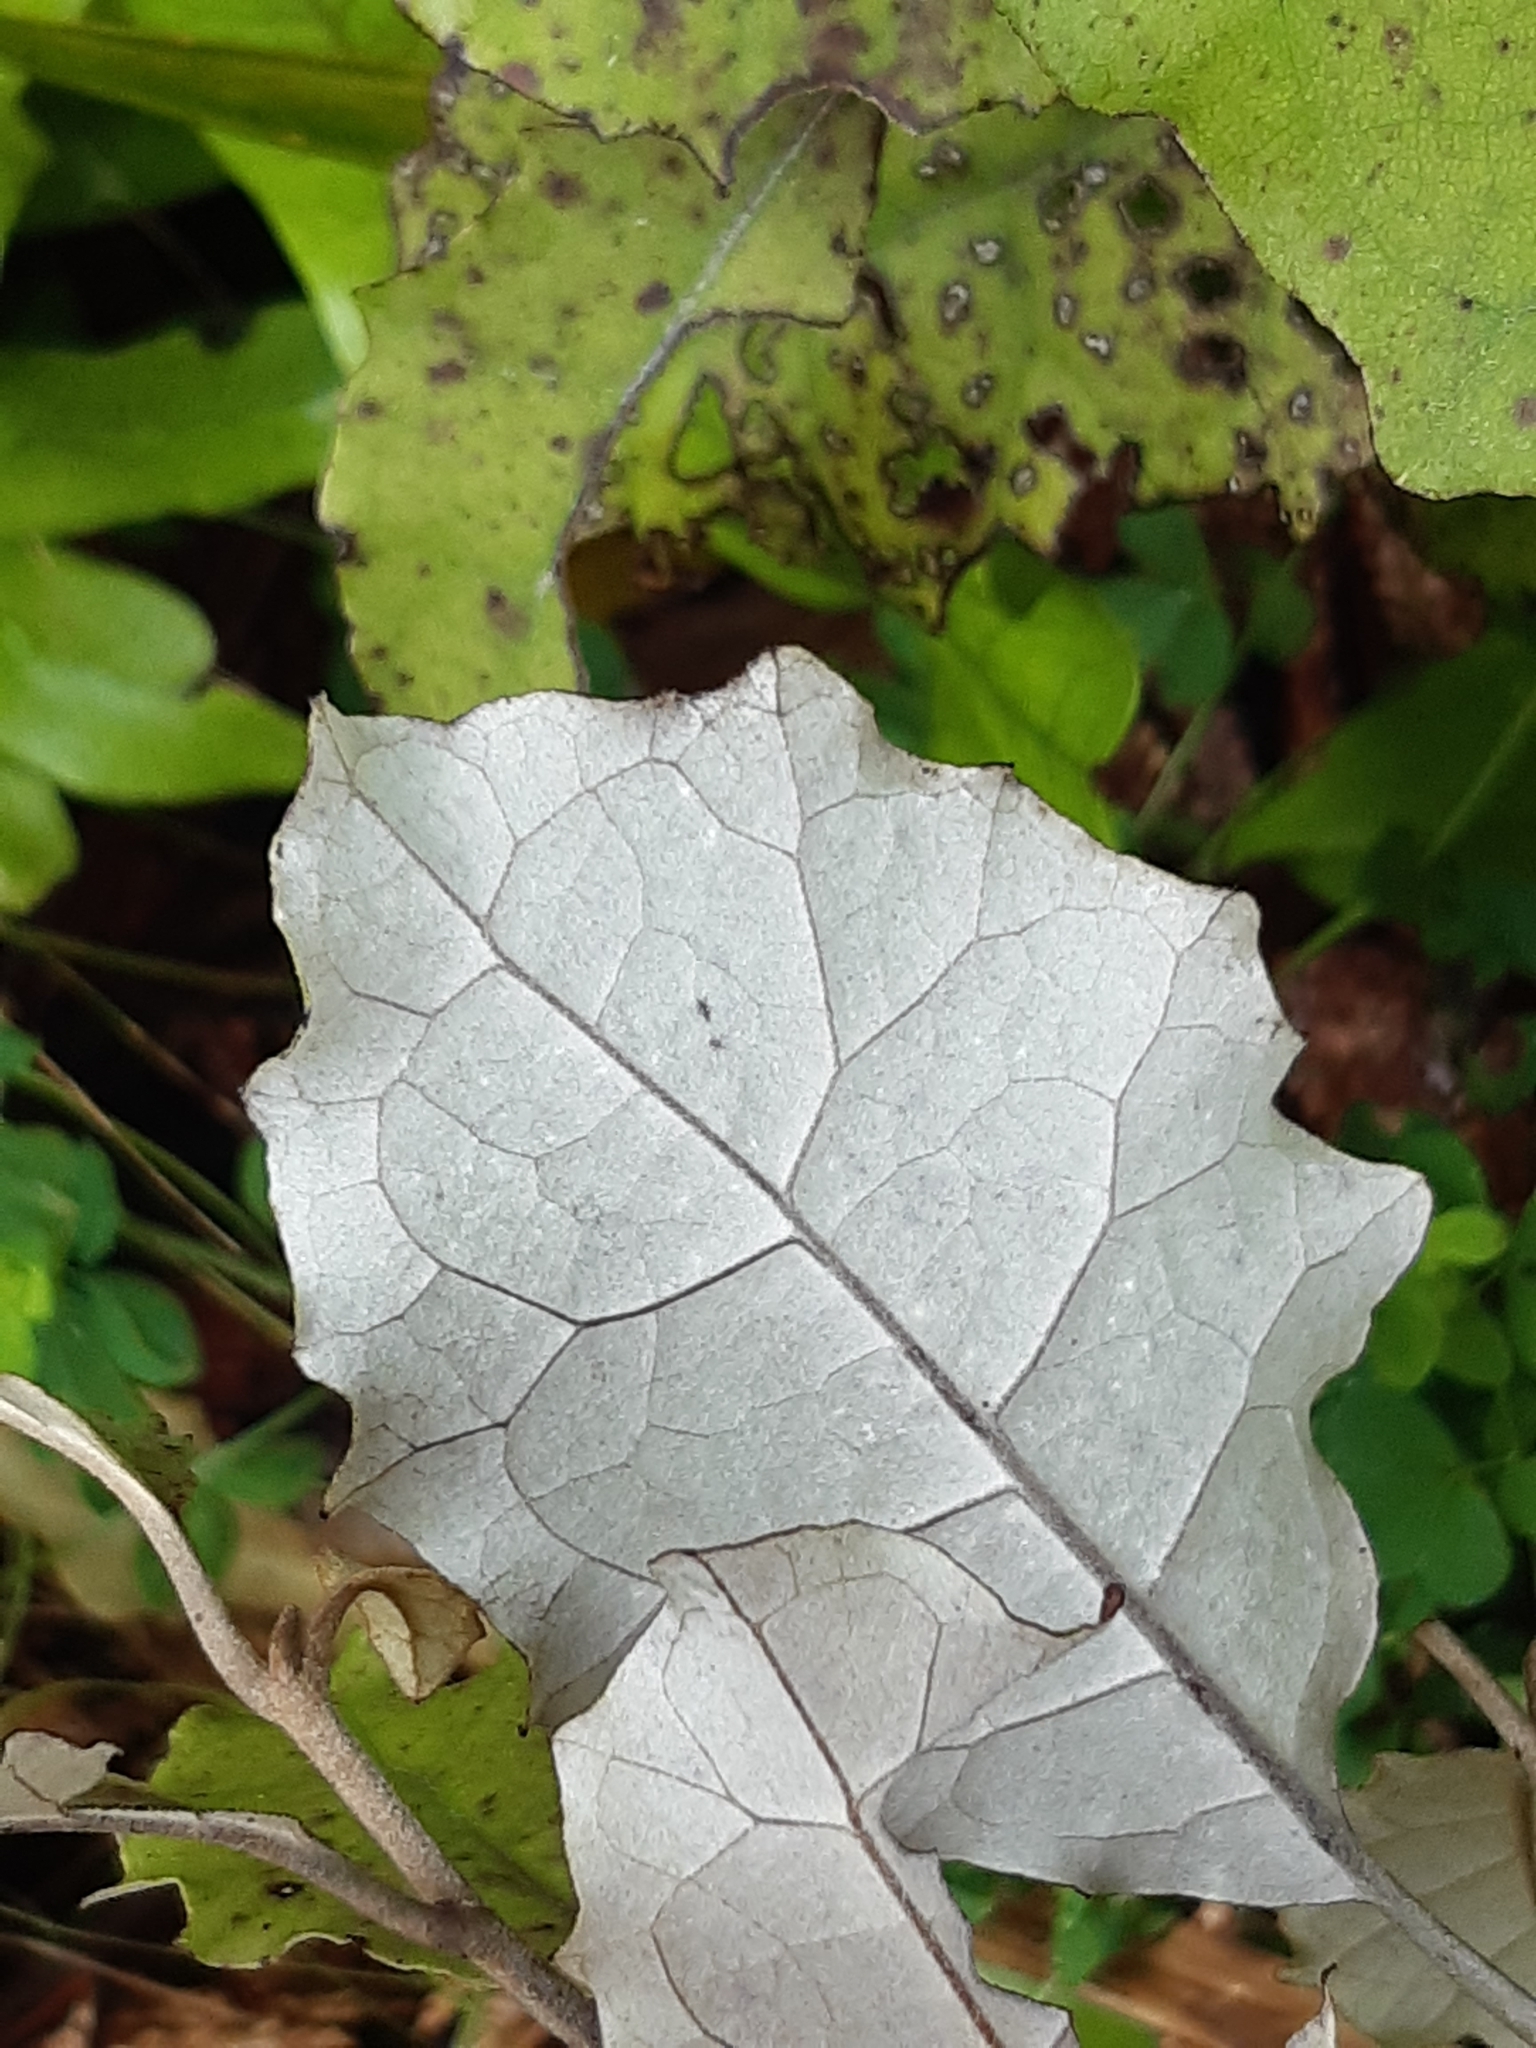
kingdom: Plantae
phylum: Tracheophyta
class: Magnoliopsida
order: Asterales
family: Asteraceae
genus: Brachyglottis
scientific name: Brachyglottis repanda
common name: Hedge ragwort
